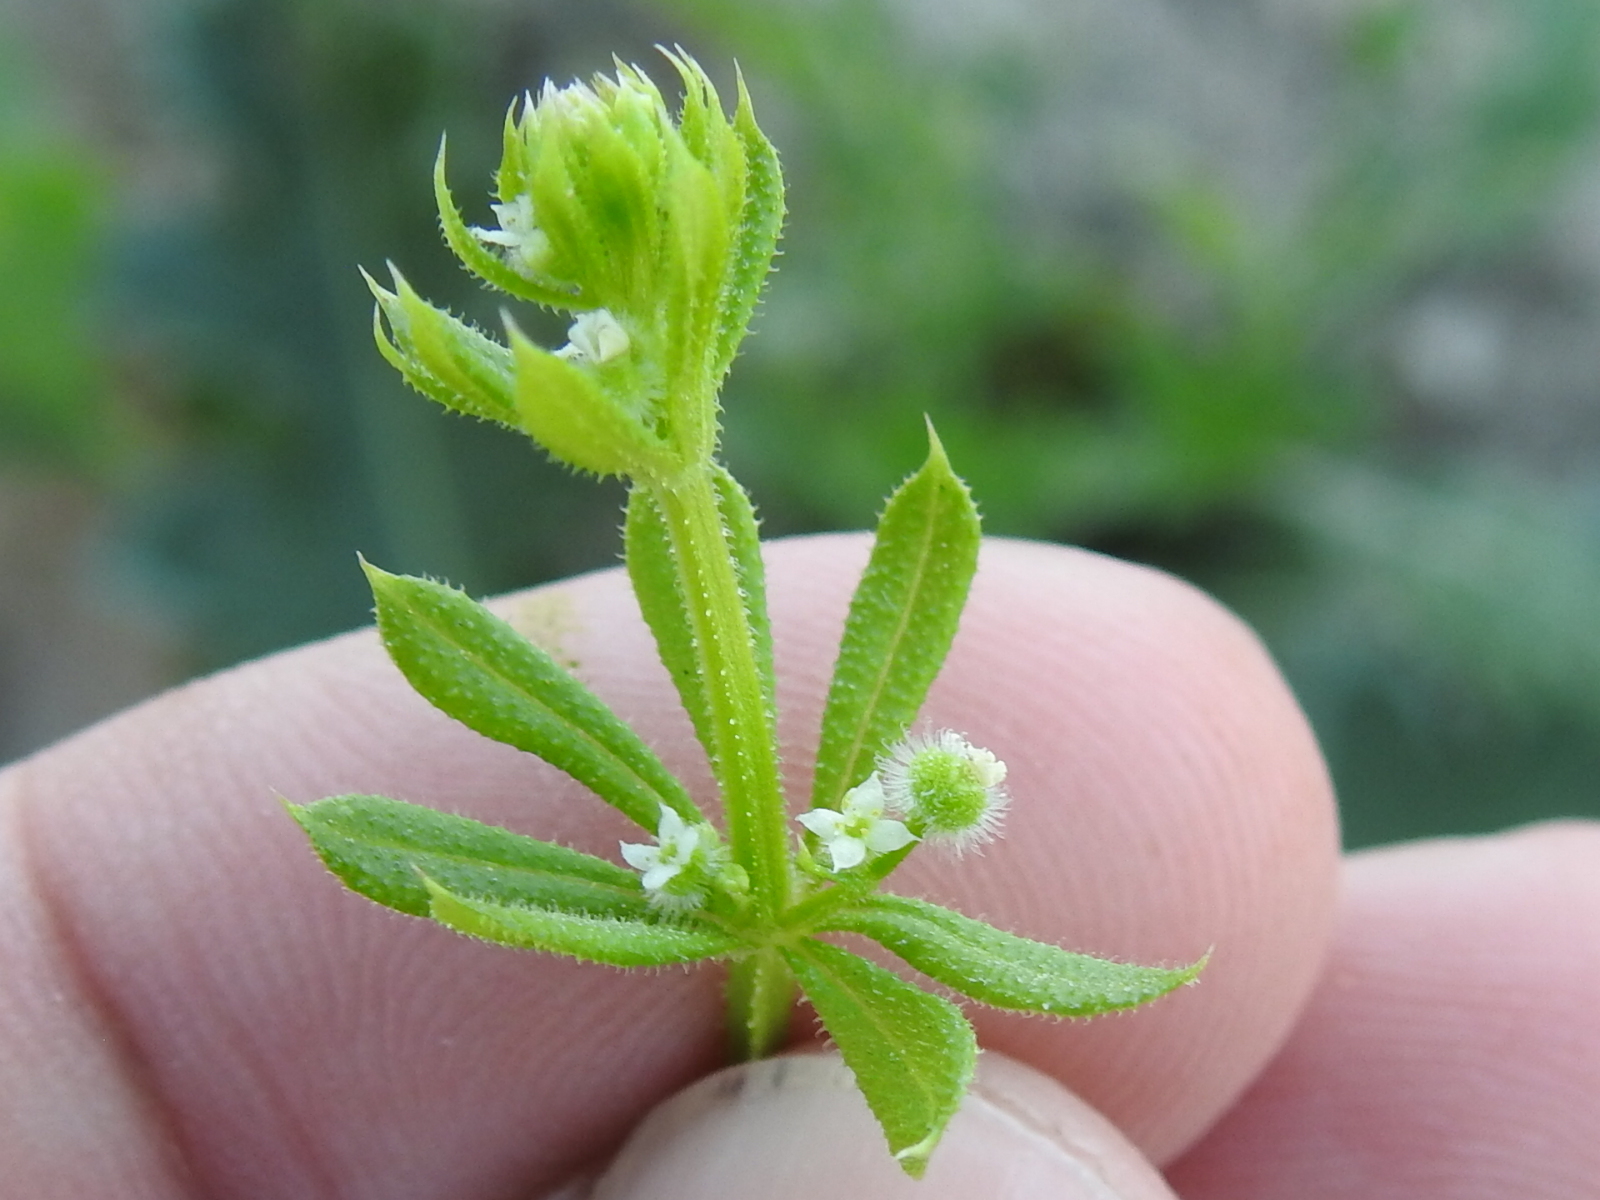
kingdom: Plantae
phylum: Tracheophyta
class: Magnoliopsida
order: Gentianales
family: Rubiaceae
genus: Galium
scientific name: Galium aparine
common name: Cleavers
